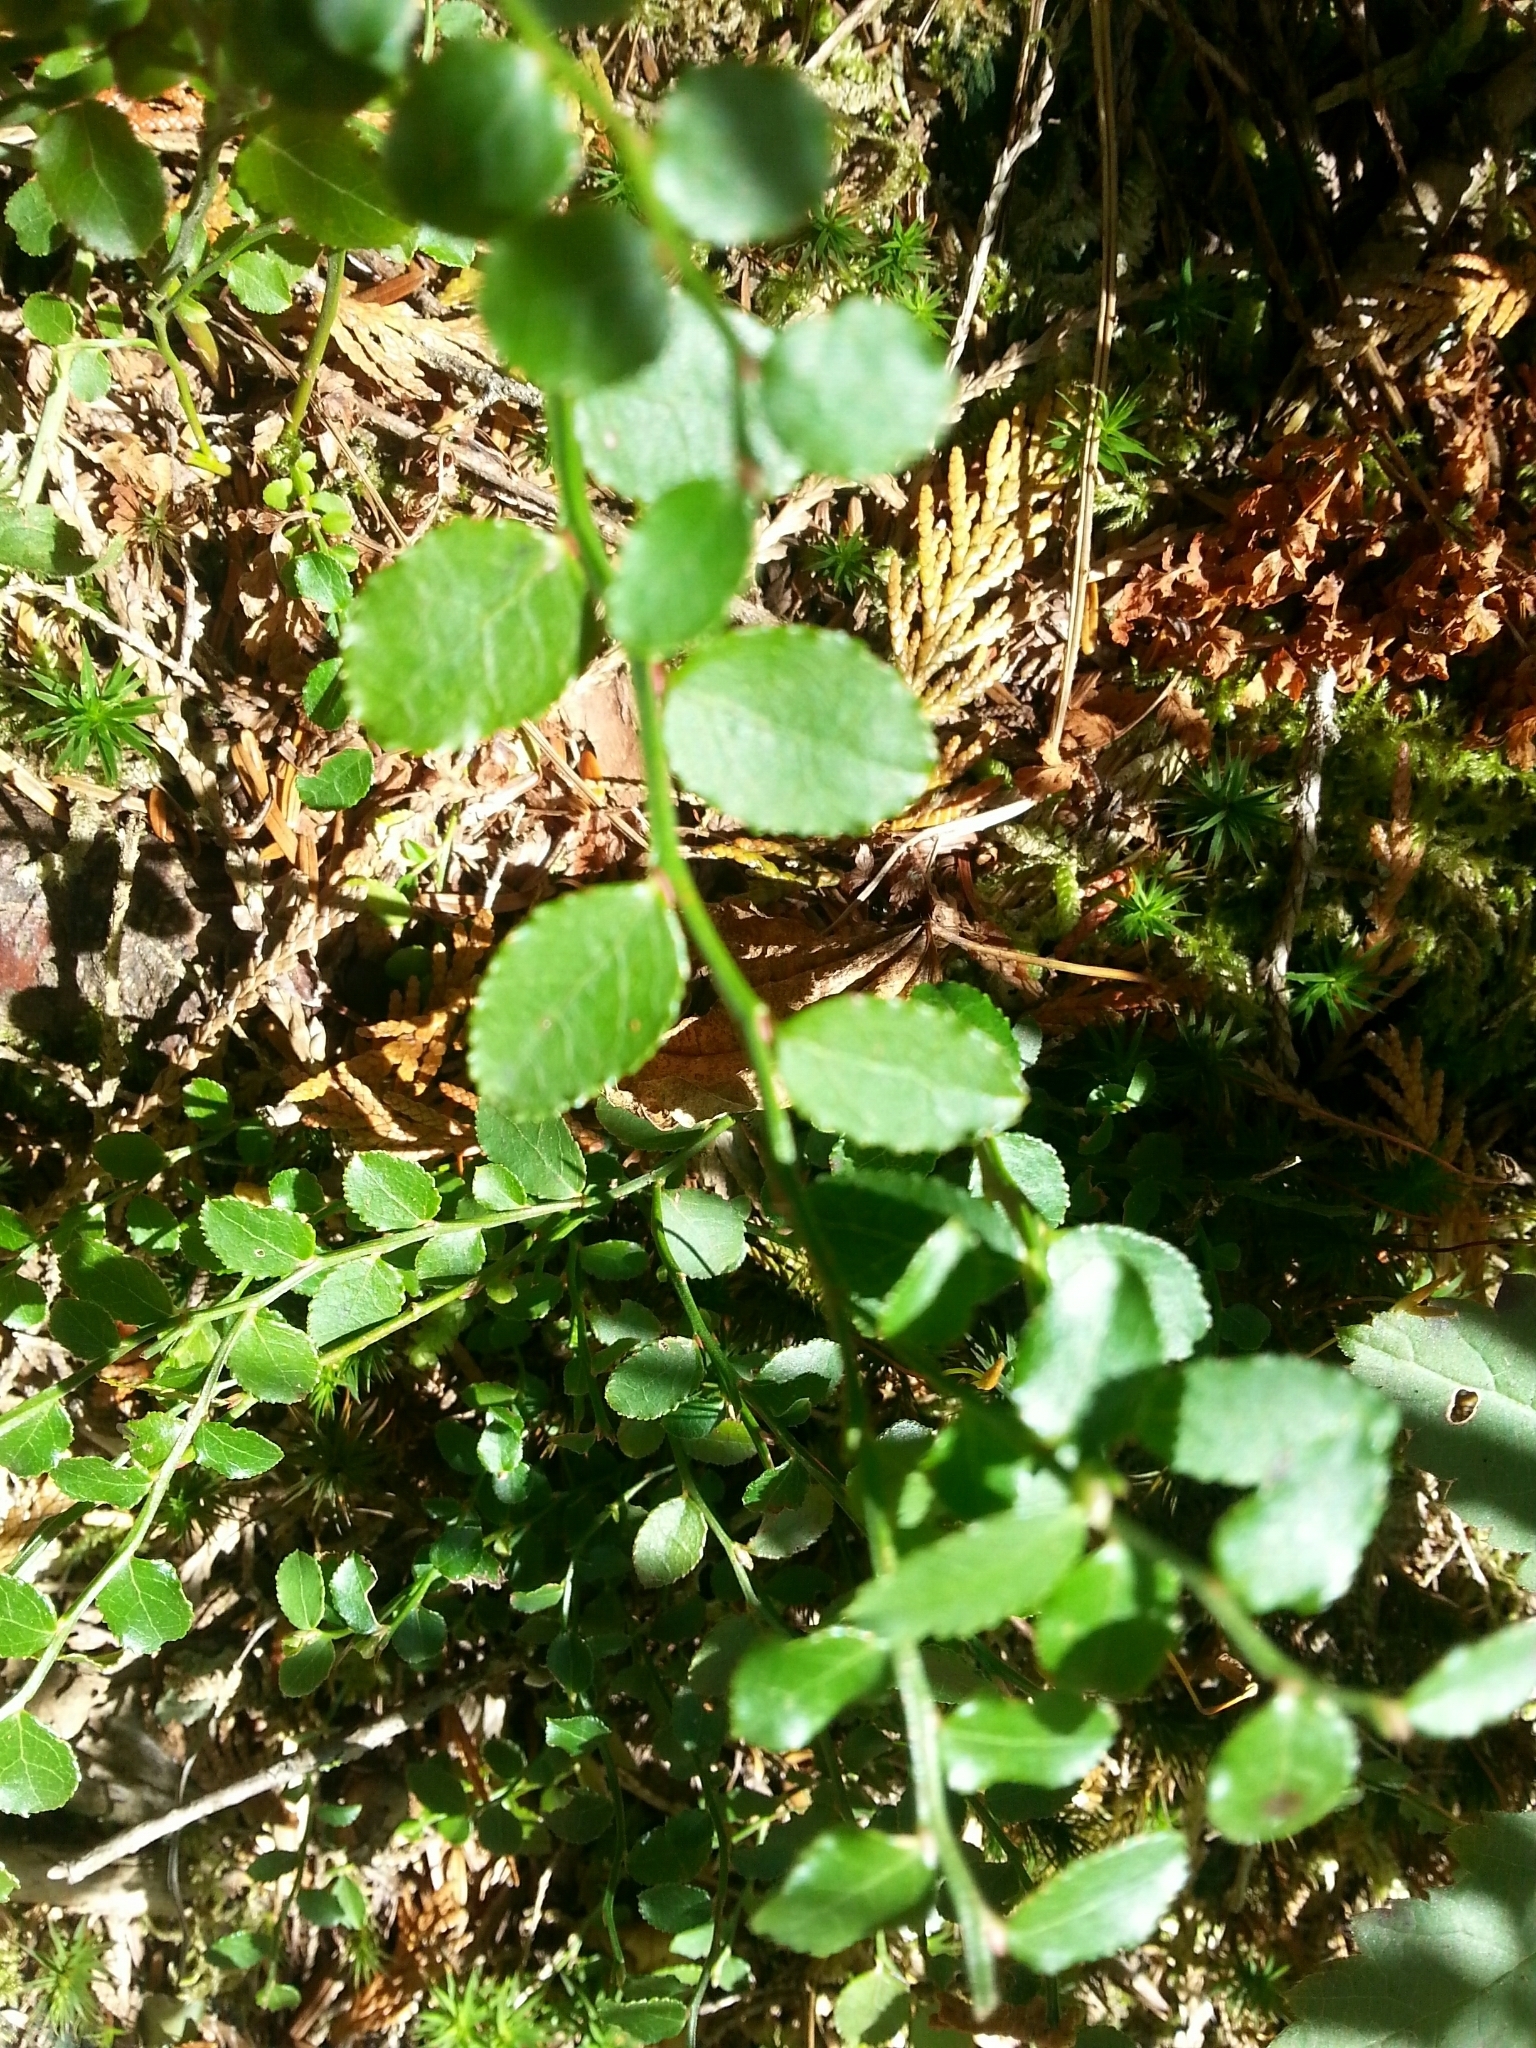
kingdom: Plantae
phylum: Tracheophyta
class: Magnoliopsida
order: Ericales
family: Ericaceae
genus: Vaccinium
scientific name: Vaccinium parvifolium
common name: Red-huckleberry
